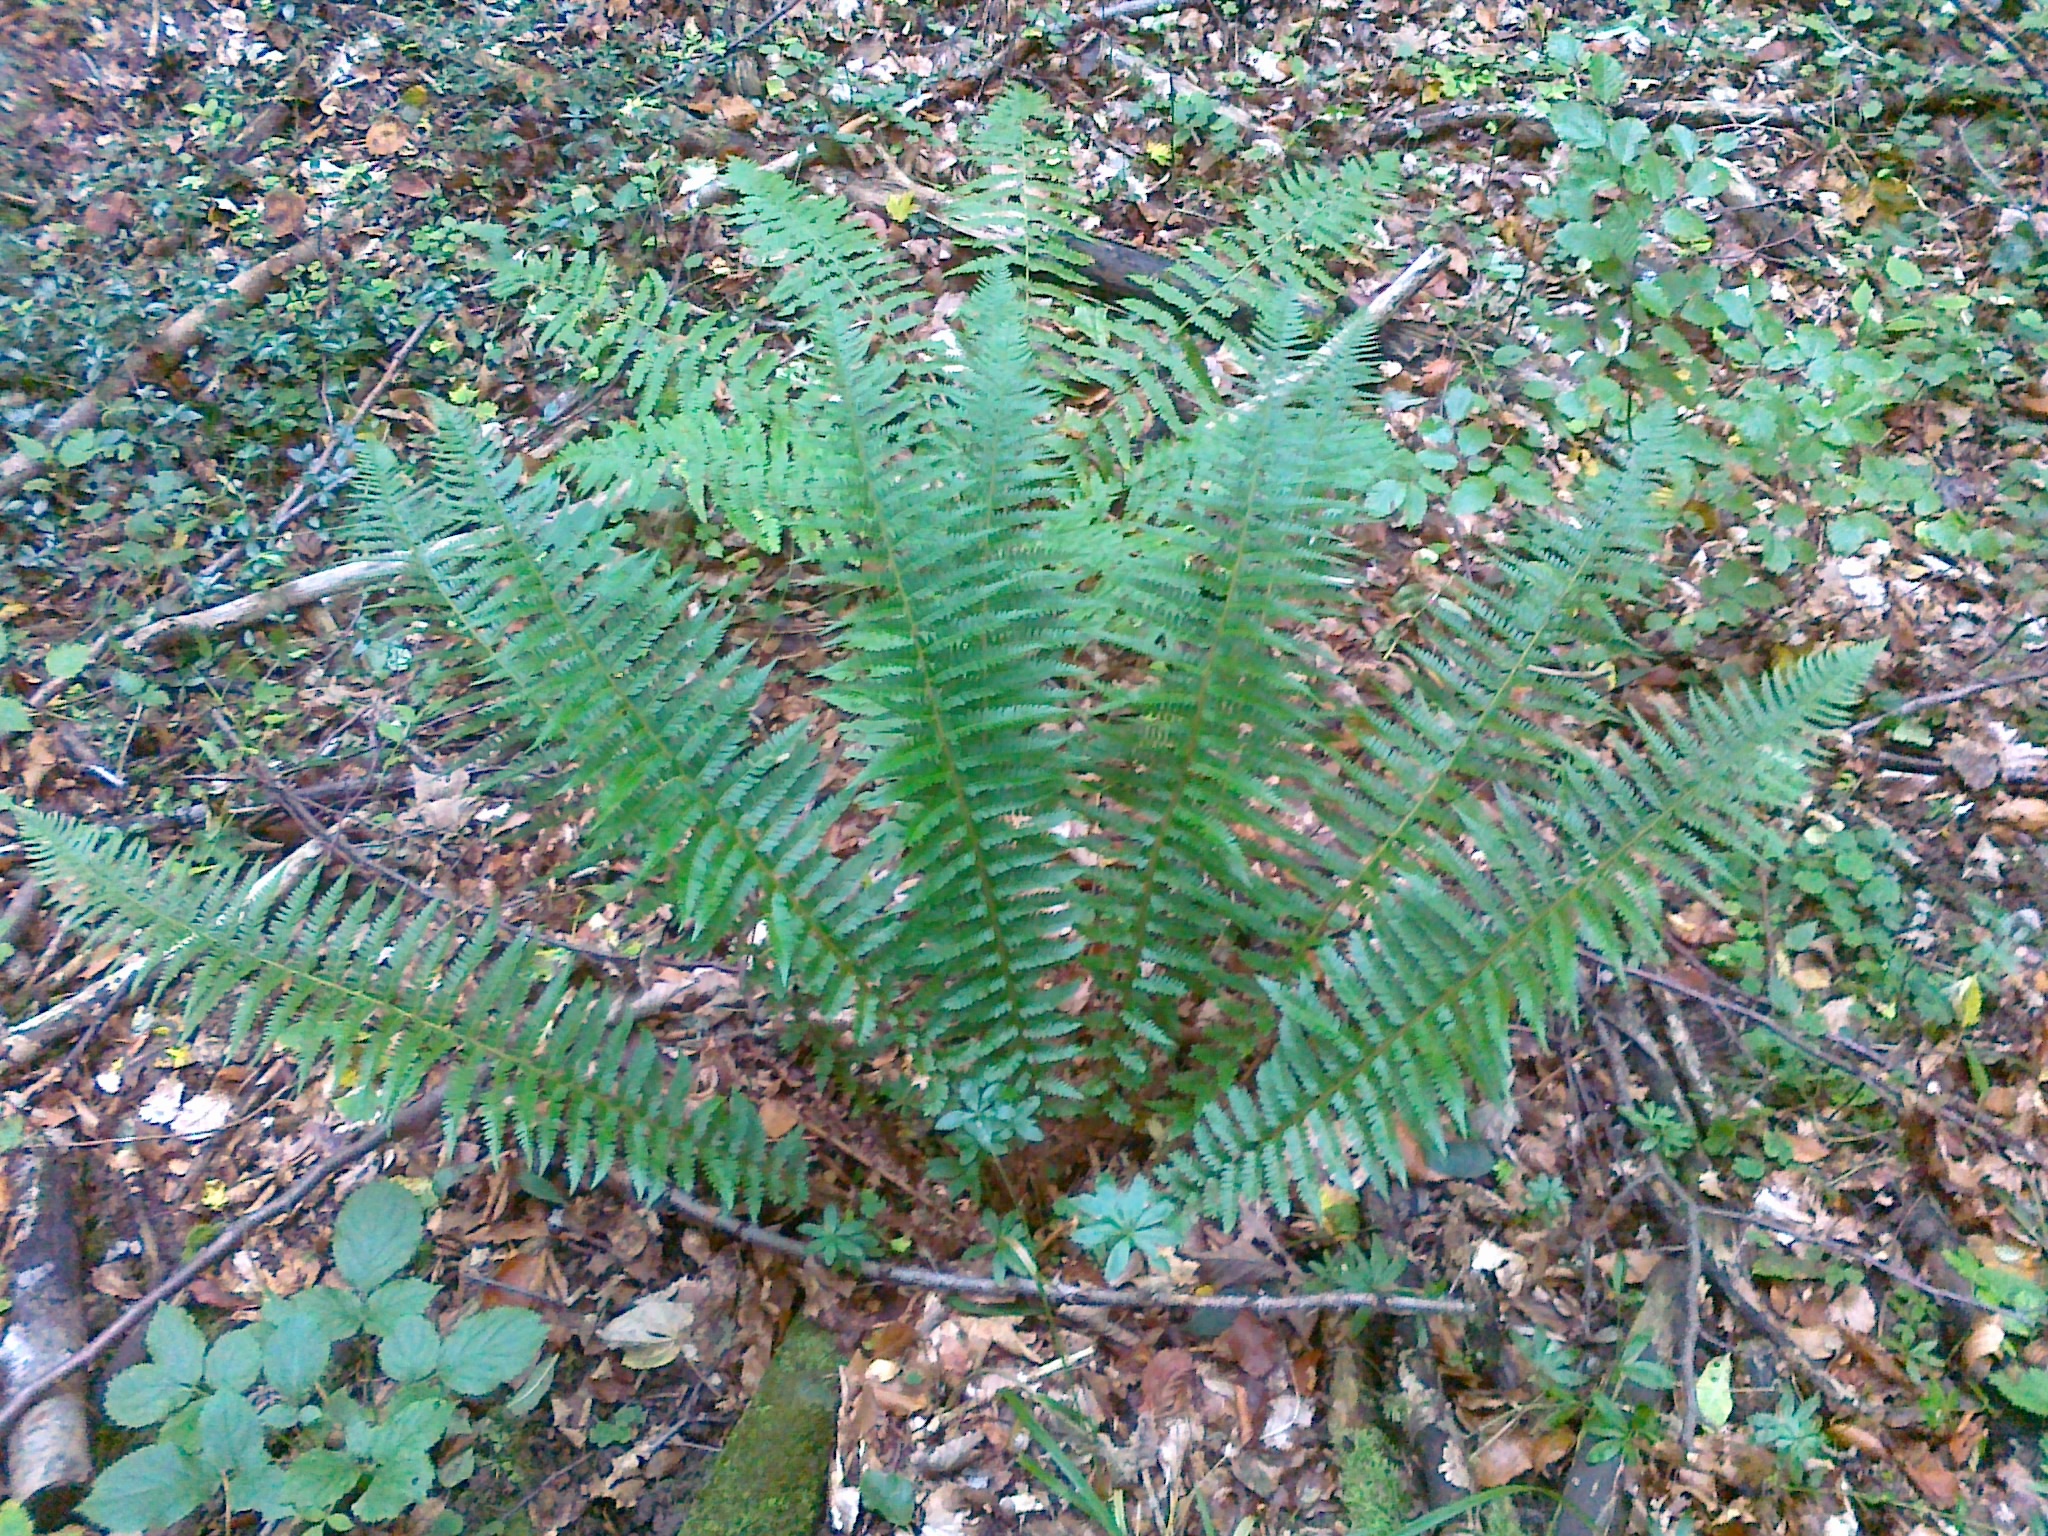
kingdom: Plantae
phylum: Tracheophyta
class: Polypodiopsida
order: Polypodiales
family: Dryopteridaceae
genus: Polystichum
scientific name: Polystichum aculeatum
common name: Hard shield-fern
